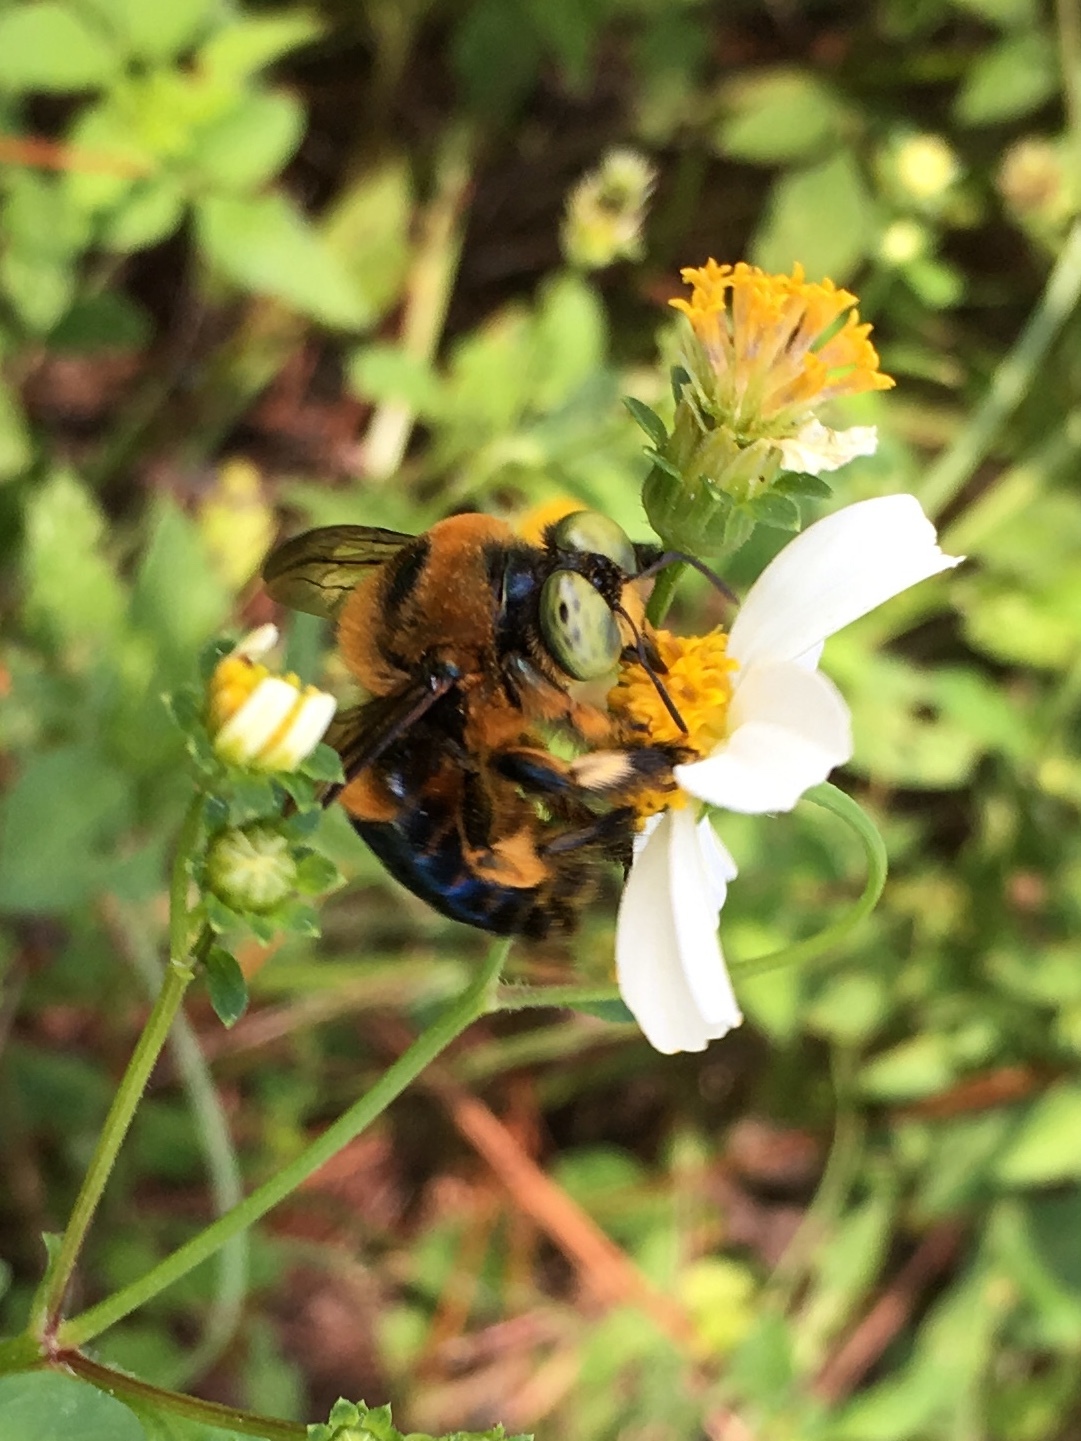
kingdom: Animalia
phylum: Arthropoda
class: Insecta
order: Hymenoptera
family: Apidae
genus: Xylocopa
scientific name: Xylocopa micans
